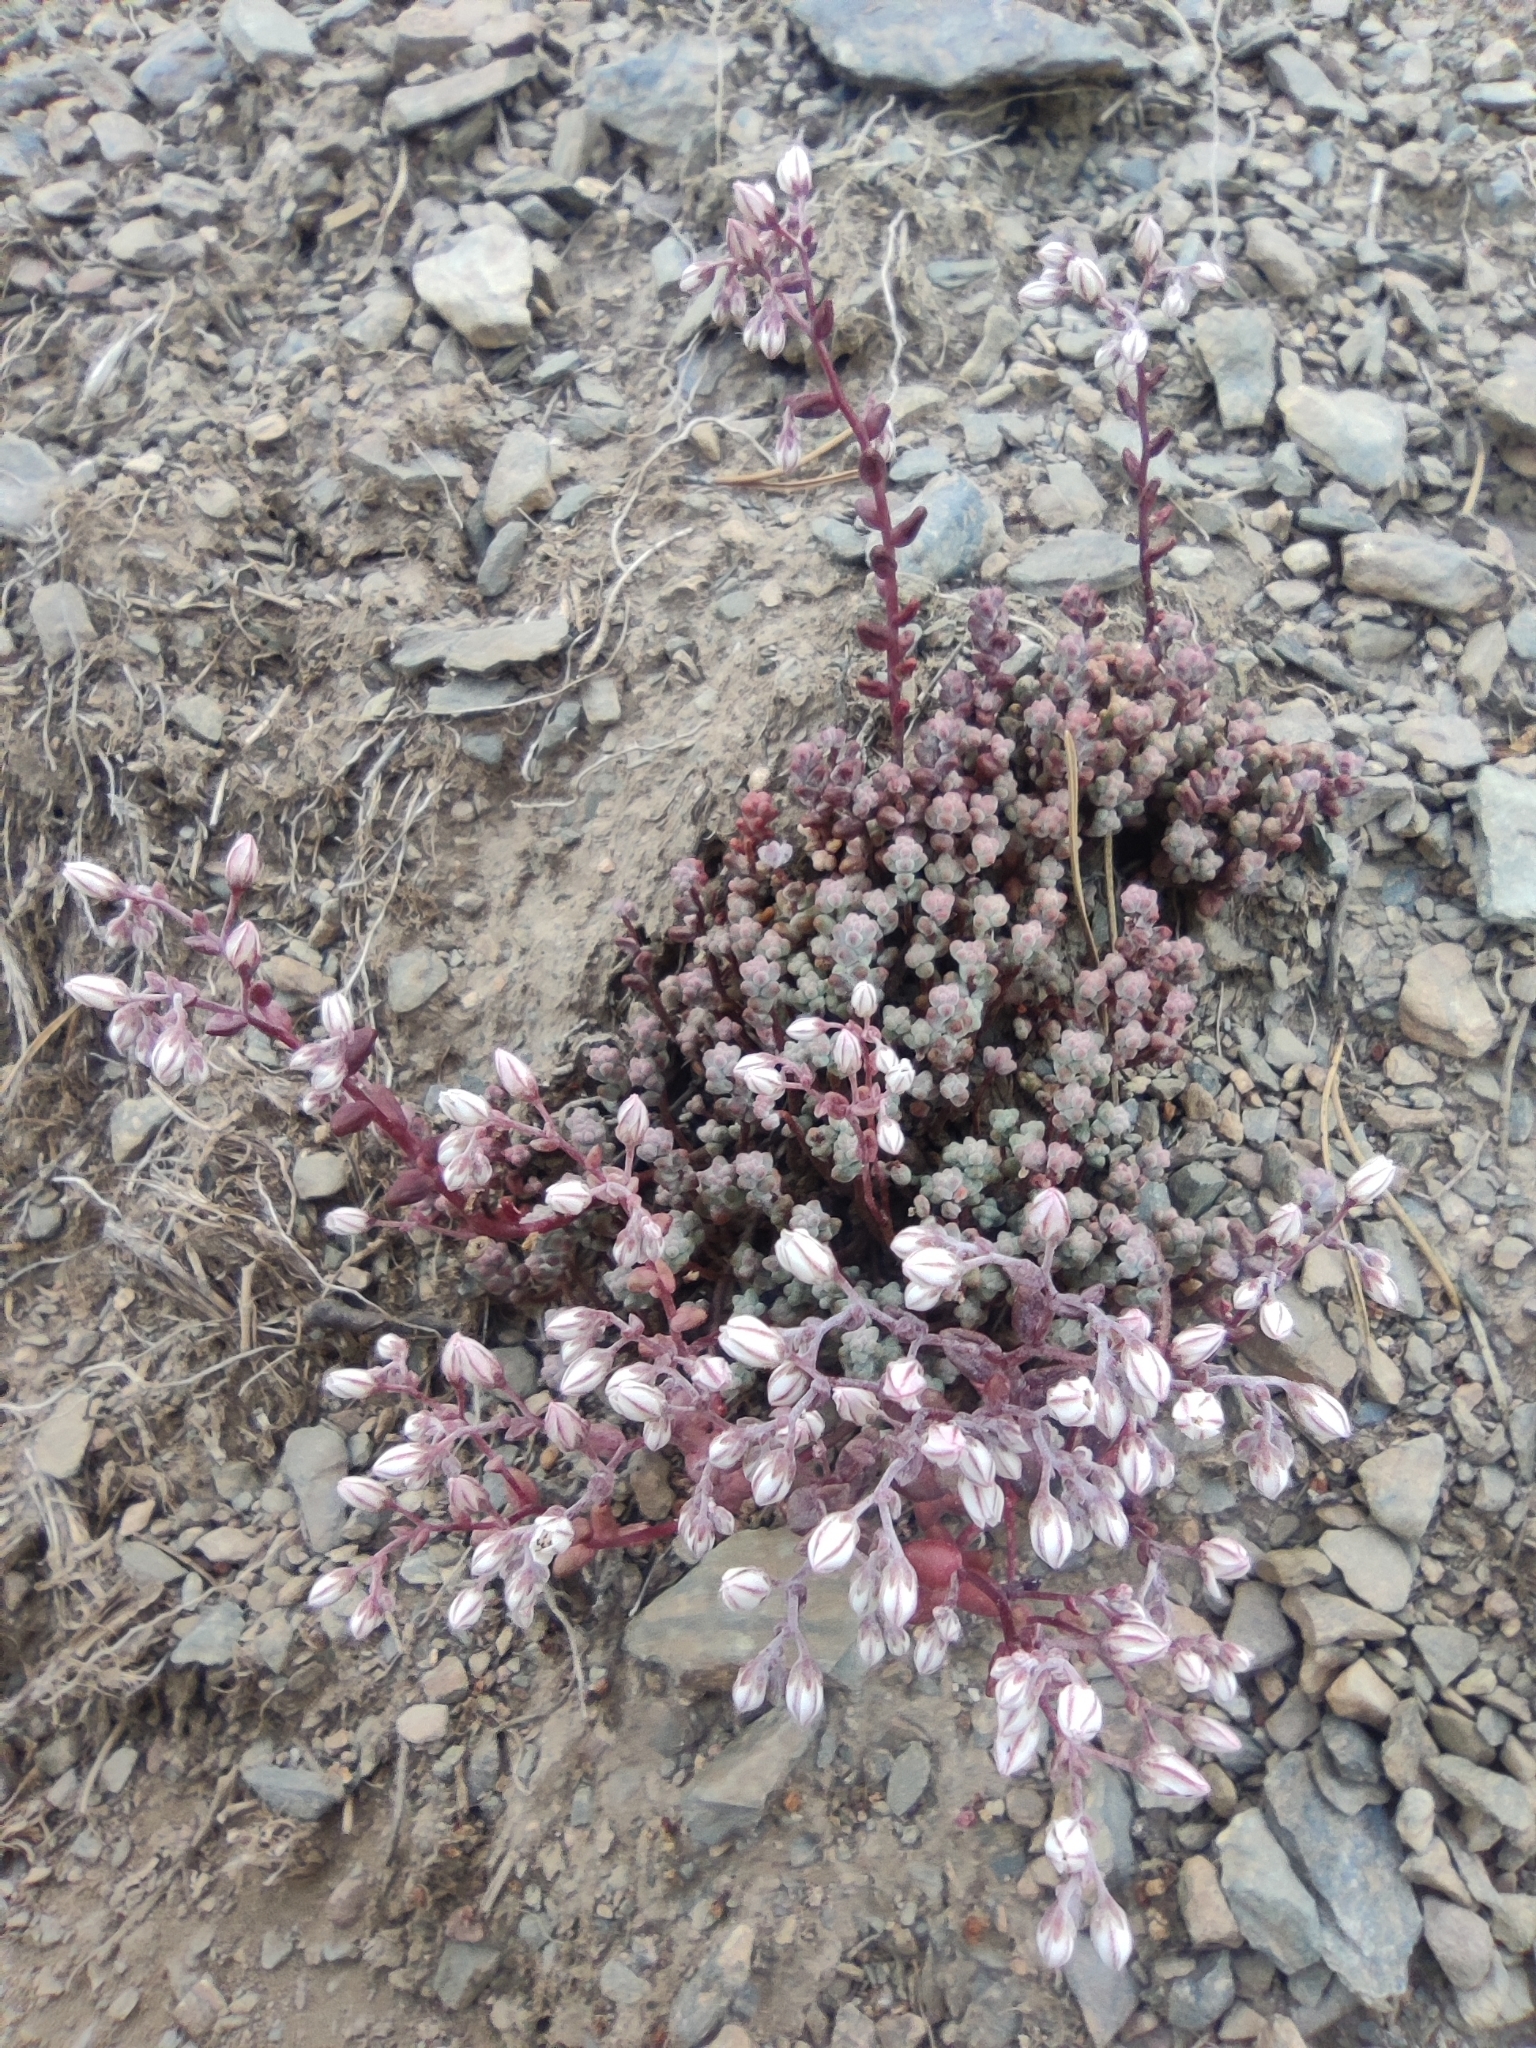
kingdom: Plantae
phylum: Tracheophyta
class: Magnoliopsida
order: Saxifragales
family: Crassulaceae
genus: Sedum
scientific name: Sedum brevifolium
